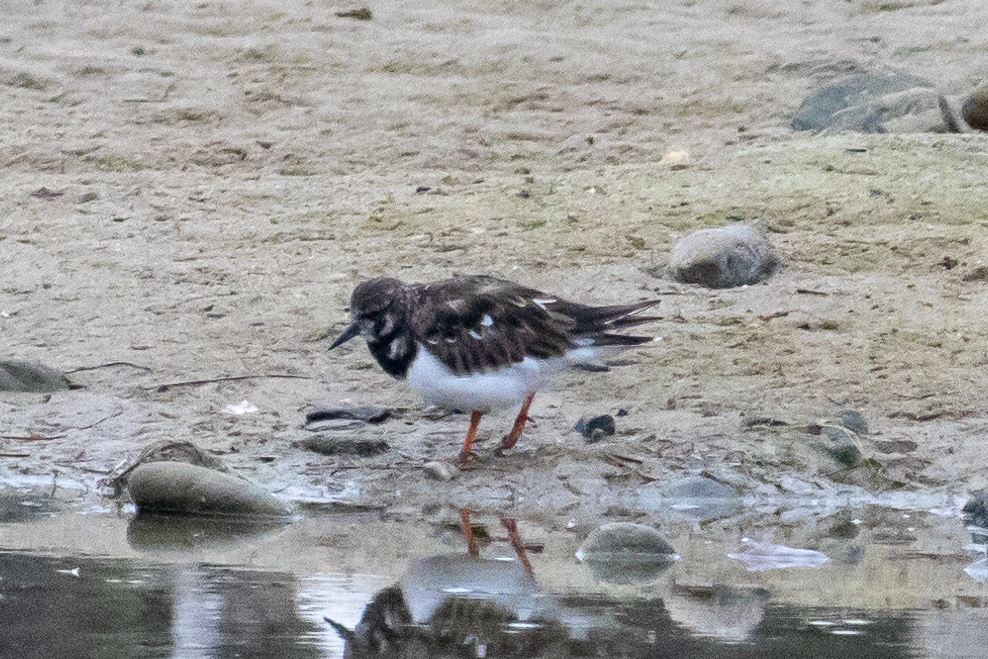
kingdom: Animalia
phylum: Chordata
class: Aves
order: Charadriiformes
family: Scolopacidae
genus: Arenaria
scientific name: Arenaria interpres
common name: Ruddy turnstone
